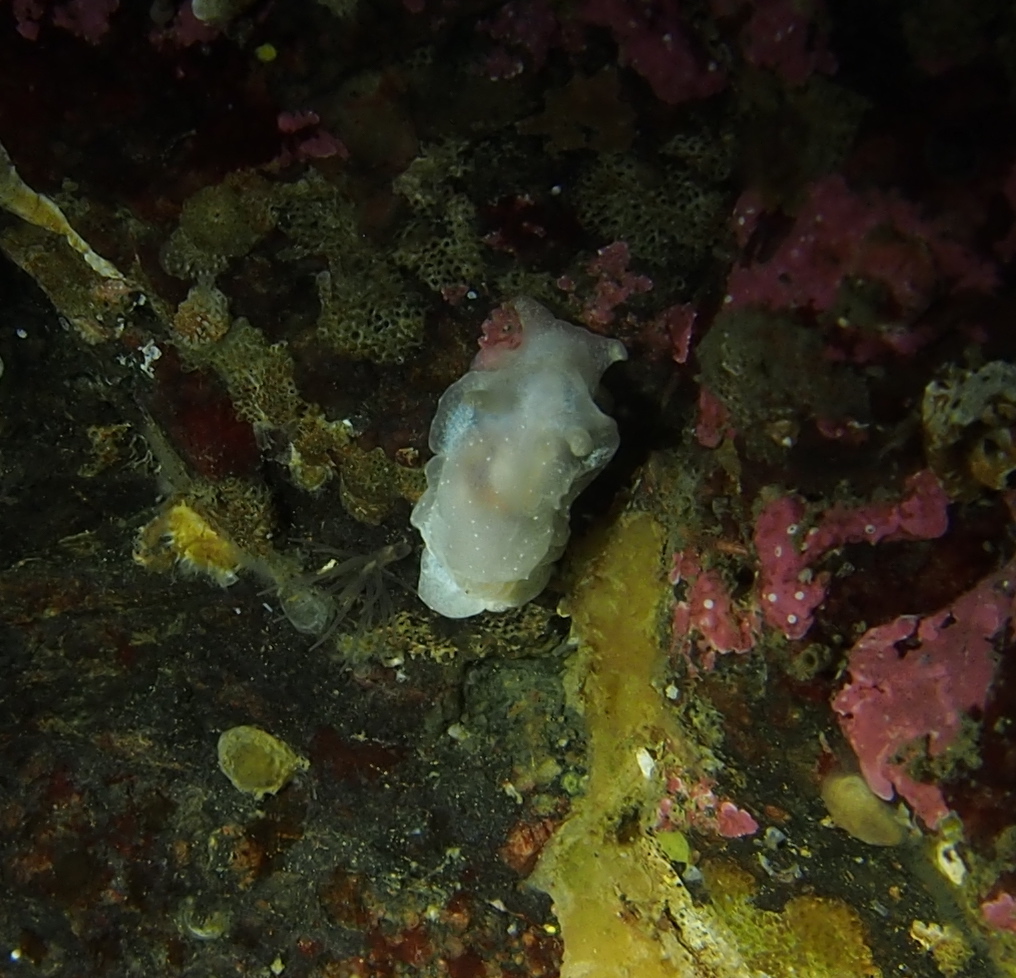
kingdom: Animalia
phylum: Mollusca
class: Gastropoda
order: Nudibranchia
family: Goniodorididae
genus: Okenia
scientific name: Okenia
